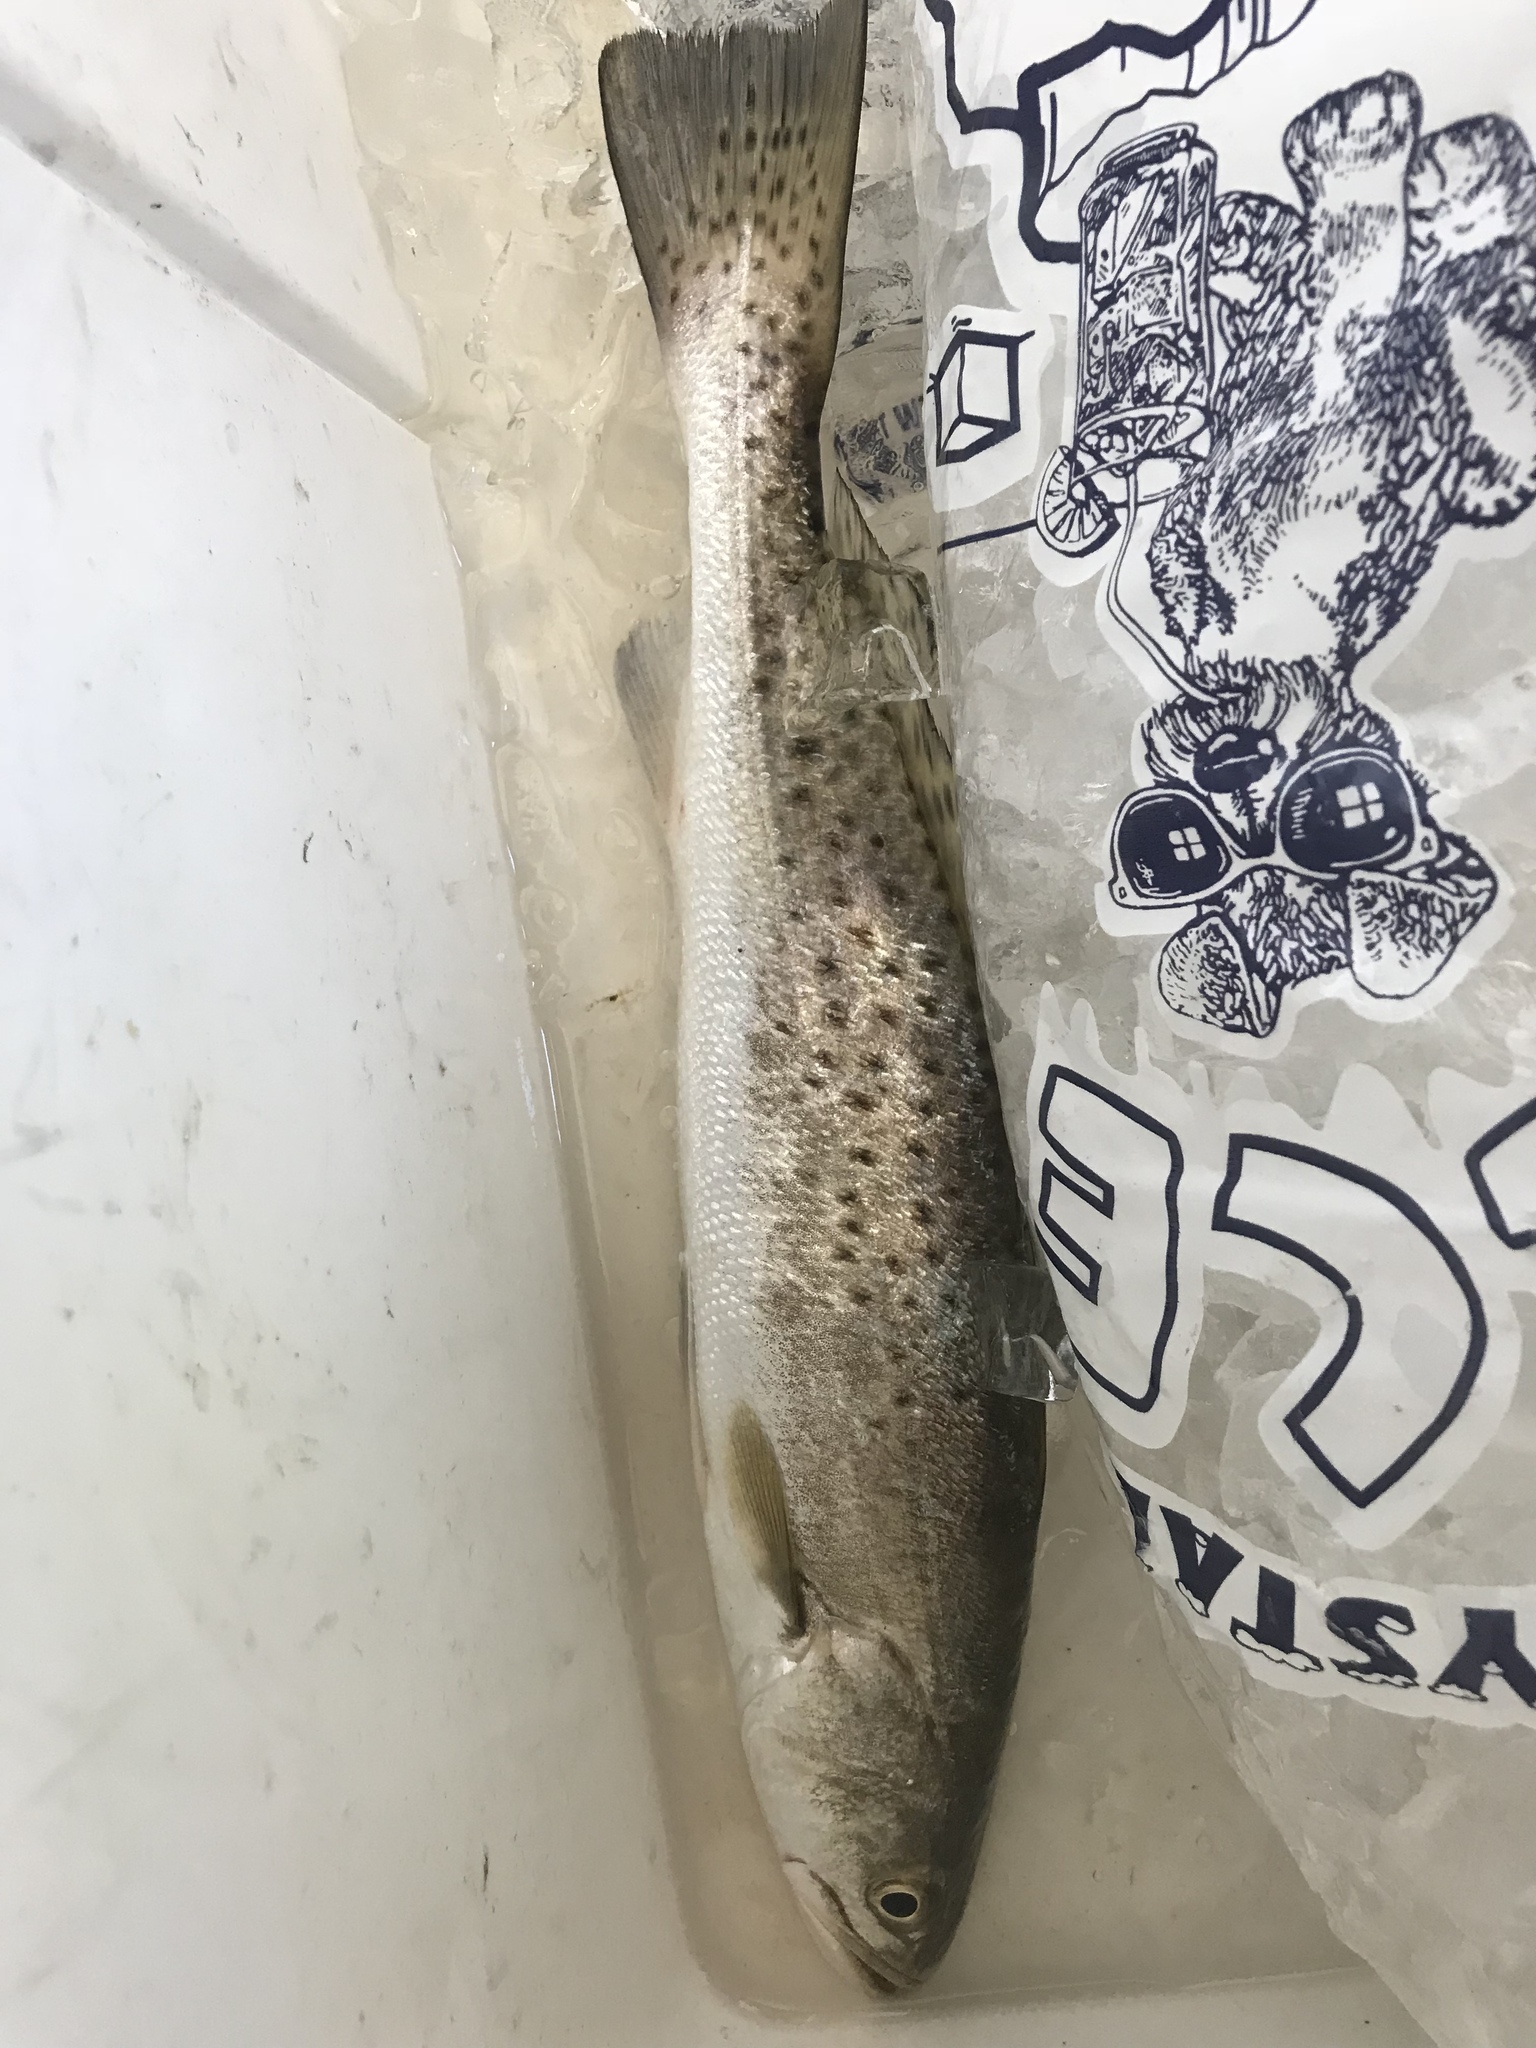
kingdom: Animalia
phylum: Chordata
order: Perciformes
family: Sciaenidae
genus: Cynoscion
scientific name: Cynoscion nebulosus
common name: Spotted seatrout
